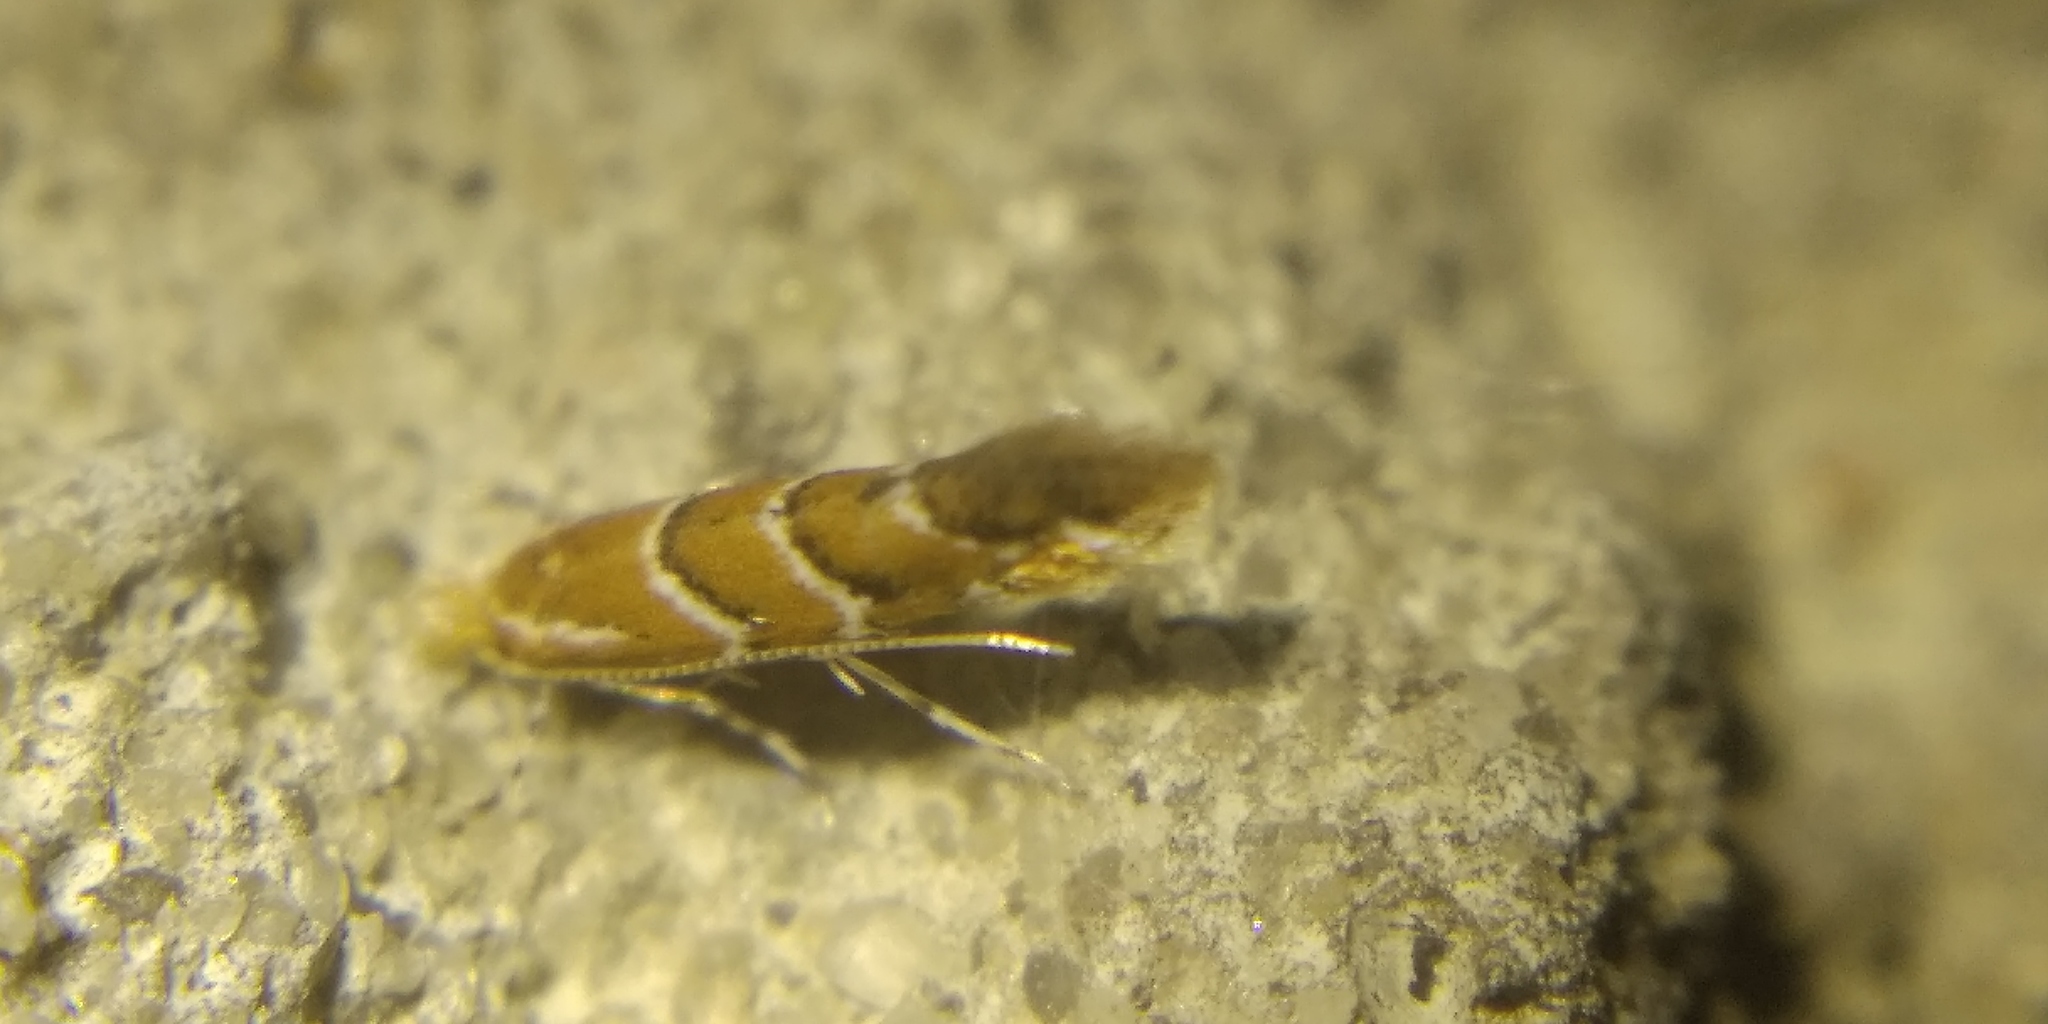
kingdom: Animalia
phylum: Arthropoda
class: Insecta
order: Lepidoptera
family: Gracillariidae
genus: Cameraria
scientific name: Cameraria ohridella
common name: Horse-chestnut leaf-miner
